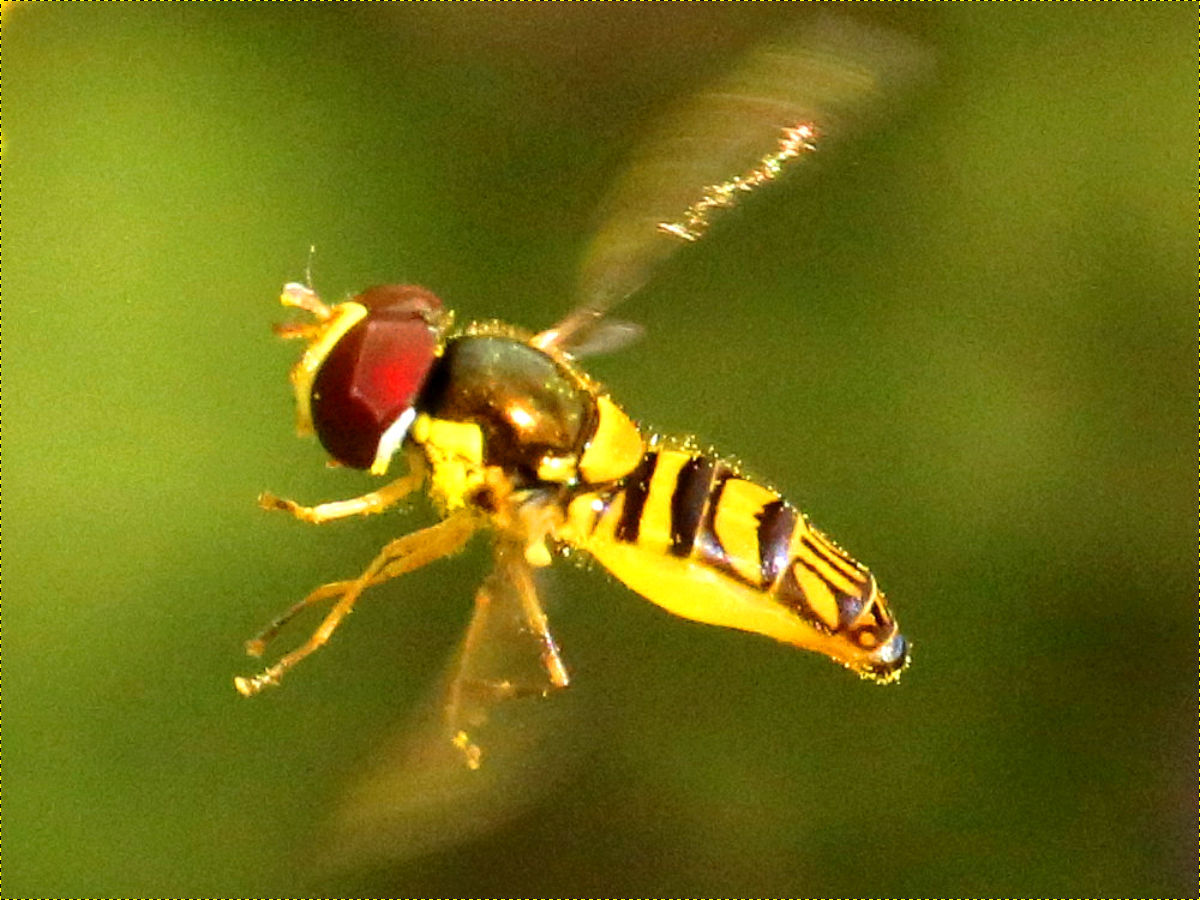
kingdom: Animalia
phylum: Arthropoda
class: Insecta
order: Diptera
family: Syrphidae
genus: Allograpta
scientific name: Allograpta obliqua
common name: Common oblique syrphid
